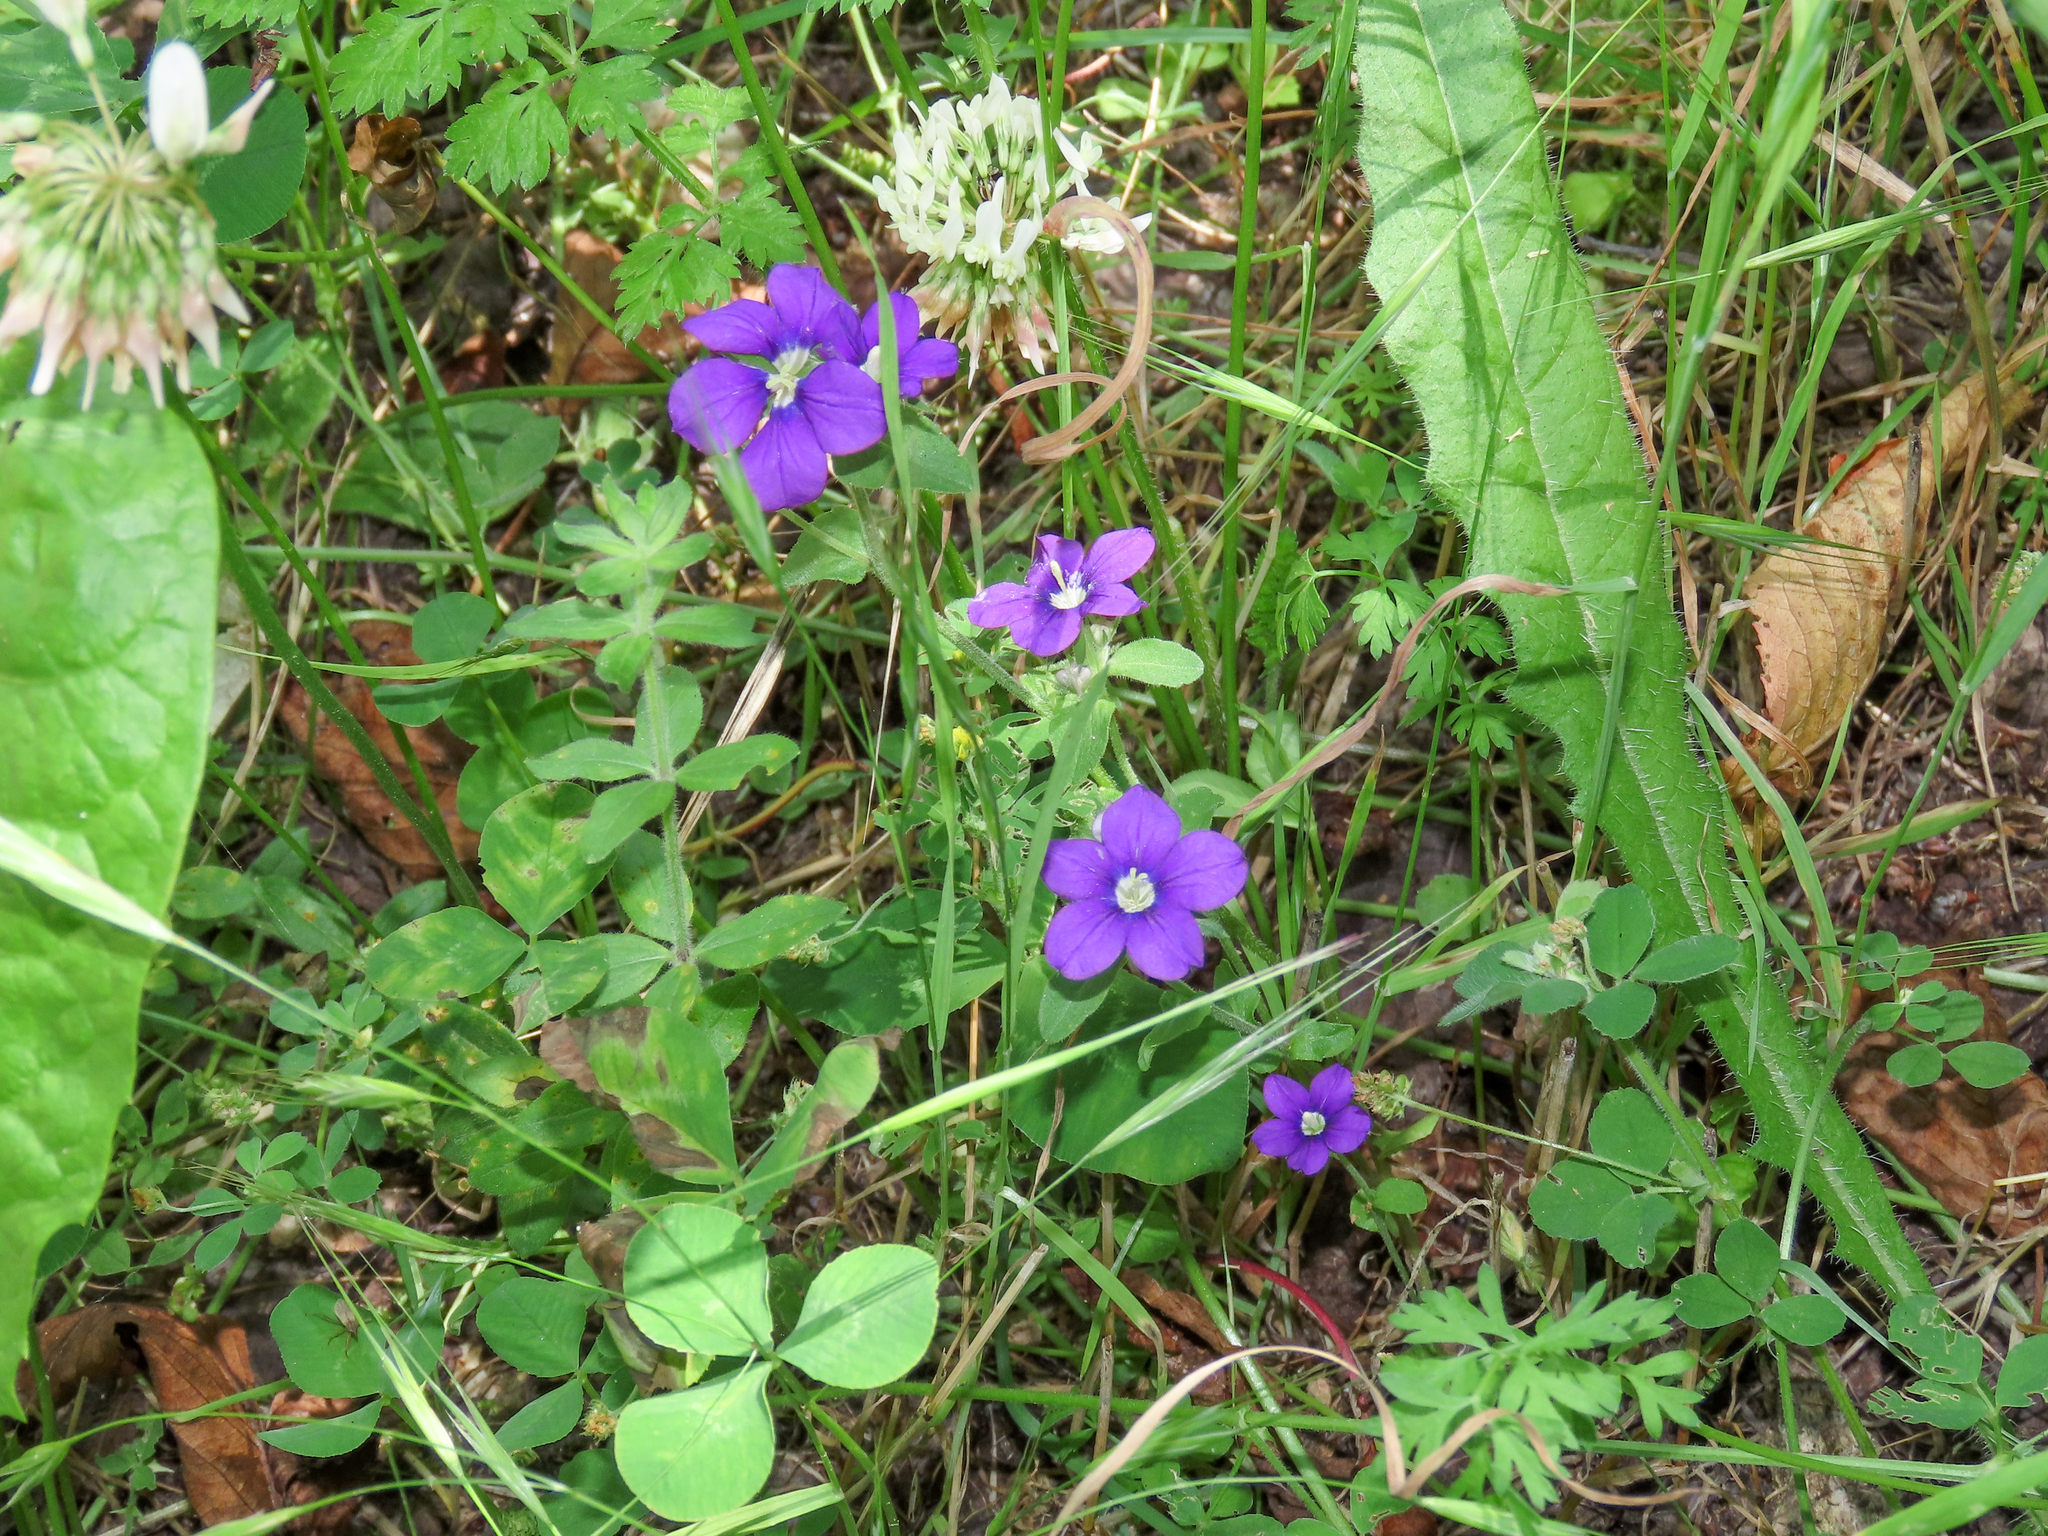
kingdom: Plantae
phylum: Tracheophyta
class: Magnoliopsida
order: Asterales
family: Campanulaceae
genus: Legousia
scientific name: Legousia speculum-veneris
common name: Large venus's-looking-glass
